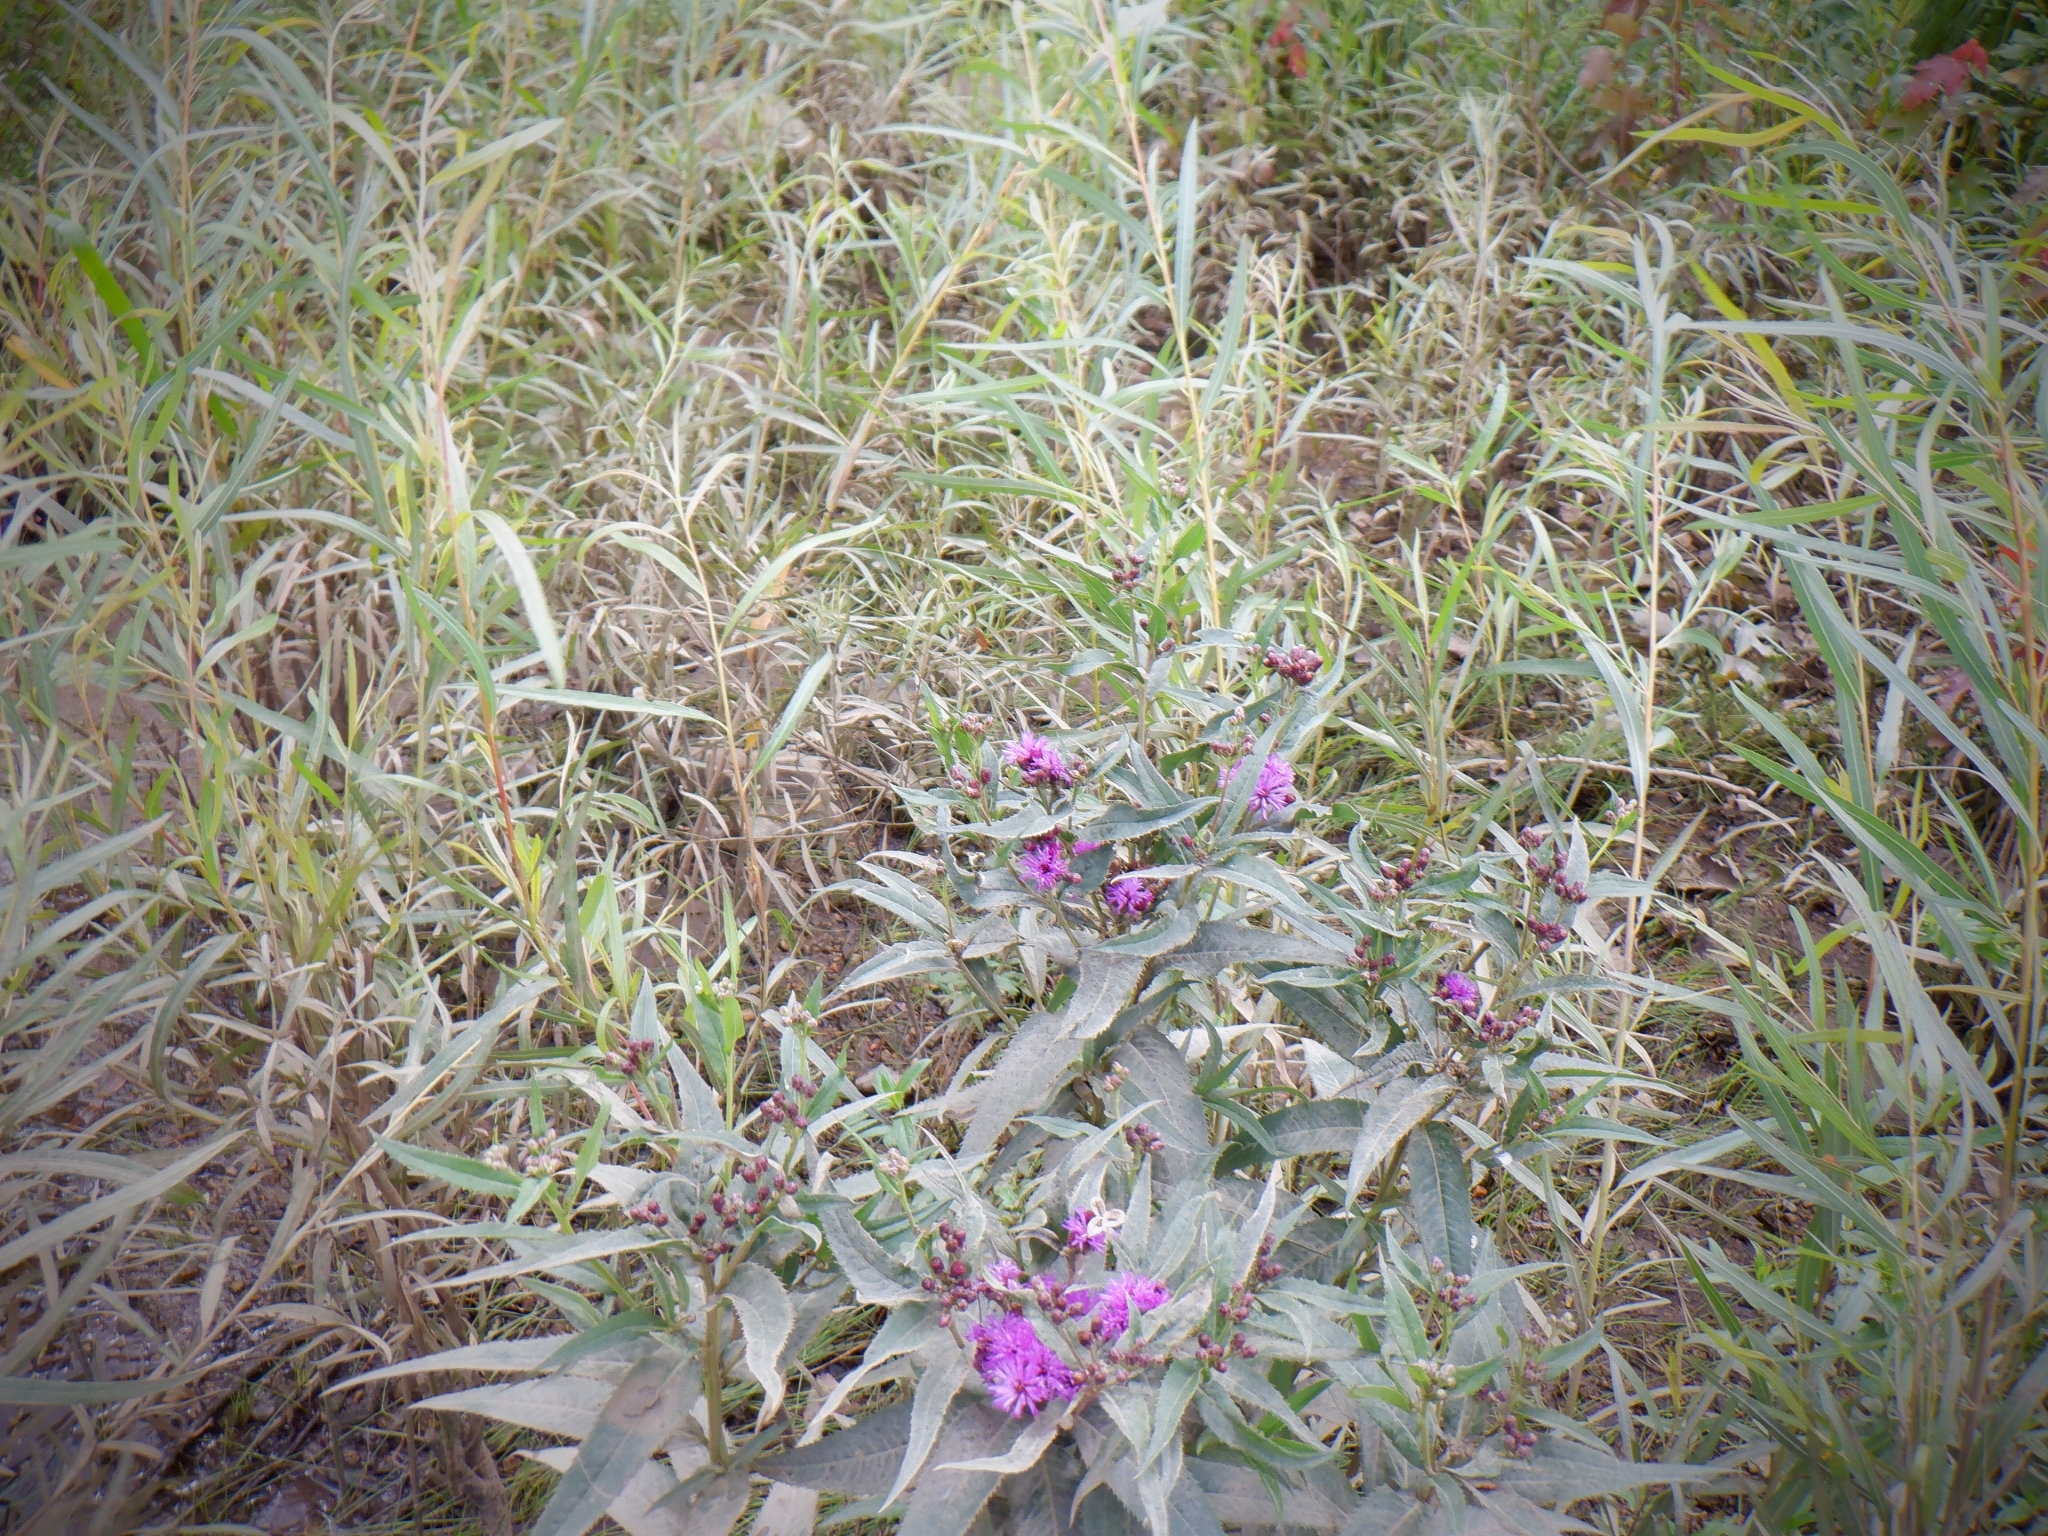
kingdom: Plantae
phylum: Tracheophyta
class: Magnoliopsida
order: Asterales
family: Asteraceae
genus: Vernonia
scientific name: Vernonia fasciculata
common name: Fascicled ironweed
